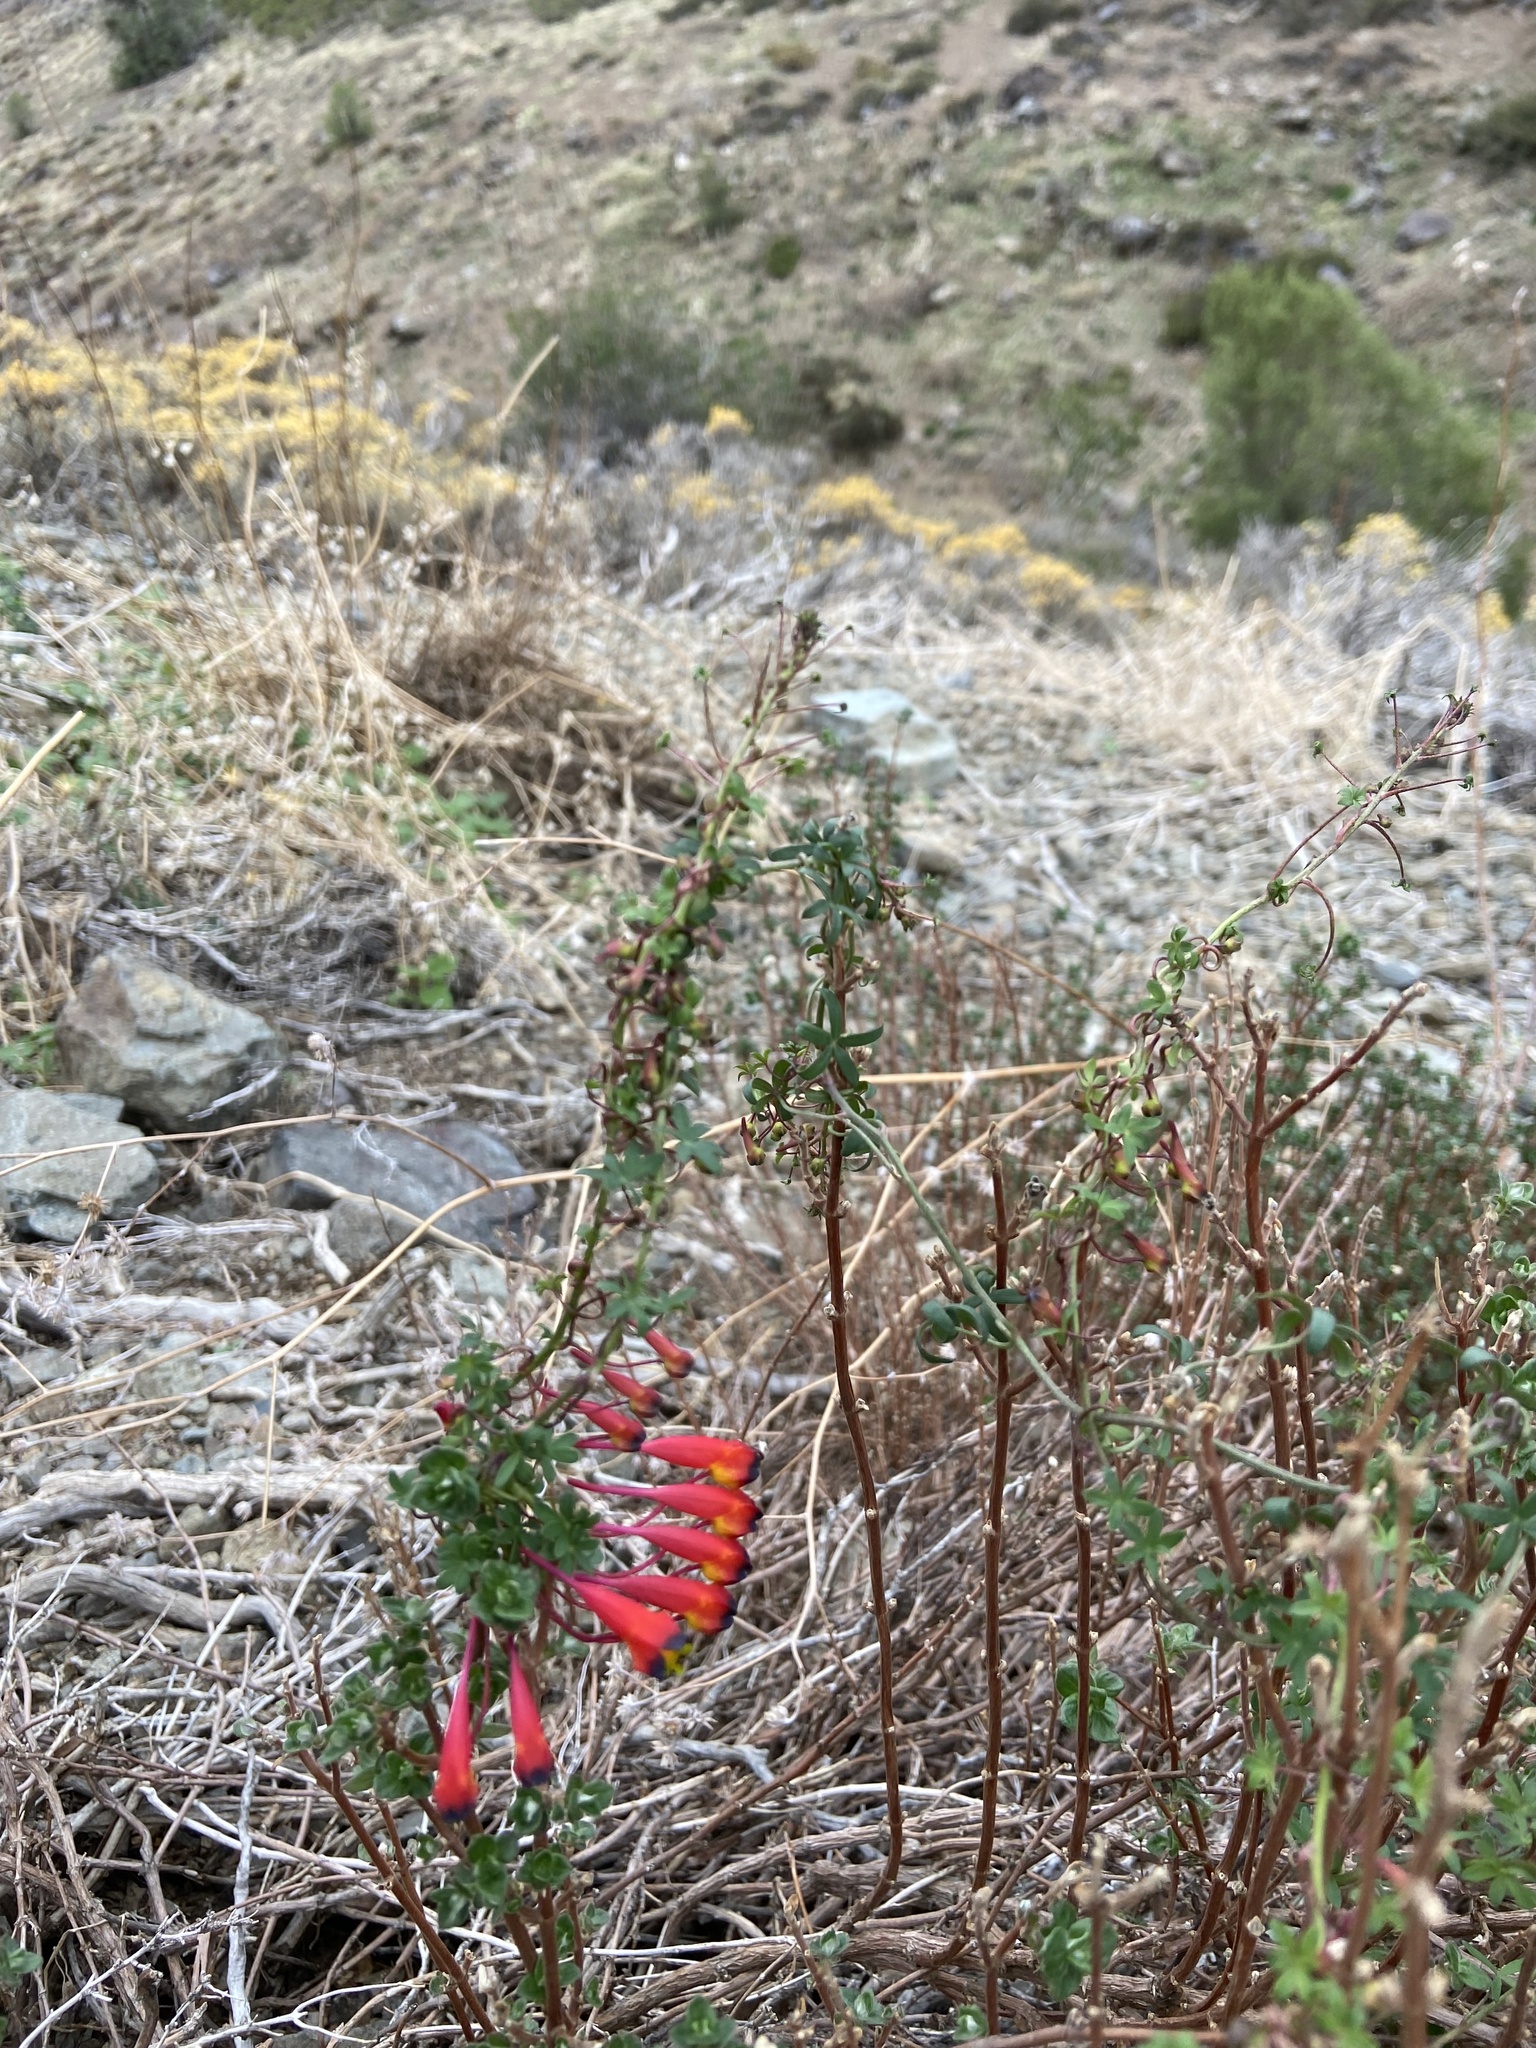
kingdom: Plantae
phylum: Tracheophyta
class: Magnoliopsida
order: Brassicales
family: Tropaeolaceae
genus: Tropaeolum
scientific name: Tropaeolum tricolor
